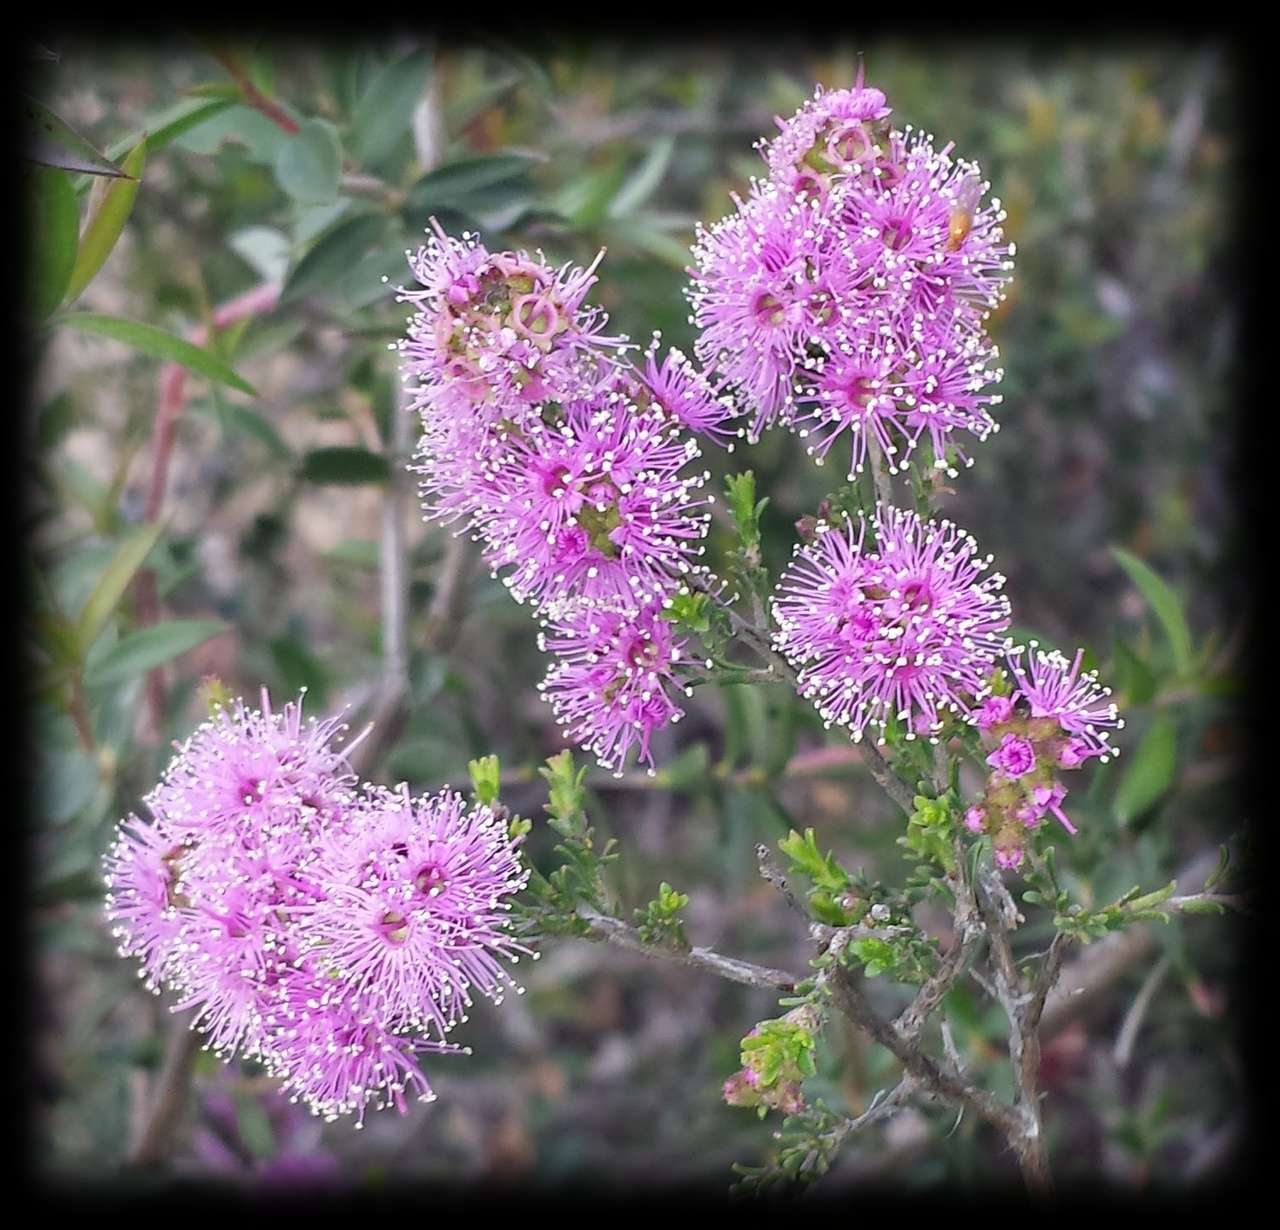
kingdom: Plantae
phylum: Tracheophyta
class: Magnoliopsida
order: Myrtales
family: Myrtaceae
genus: Kunzea
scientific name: Kunzea parvifolia
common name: Violet kunzea
